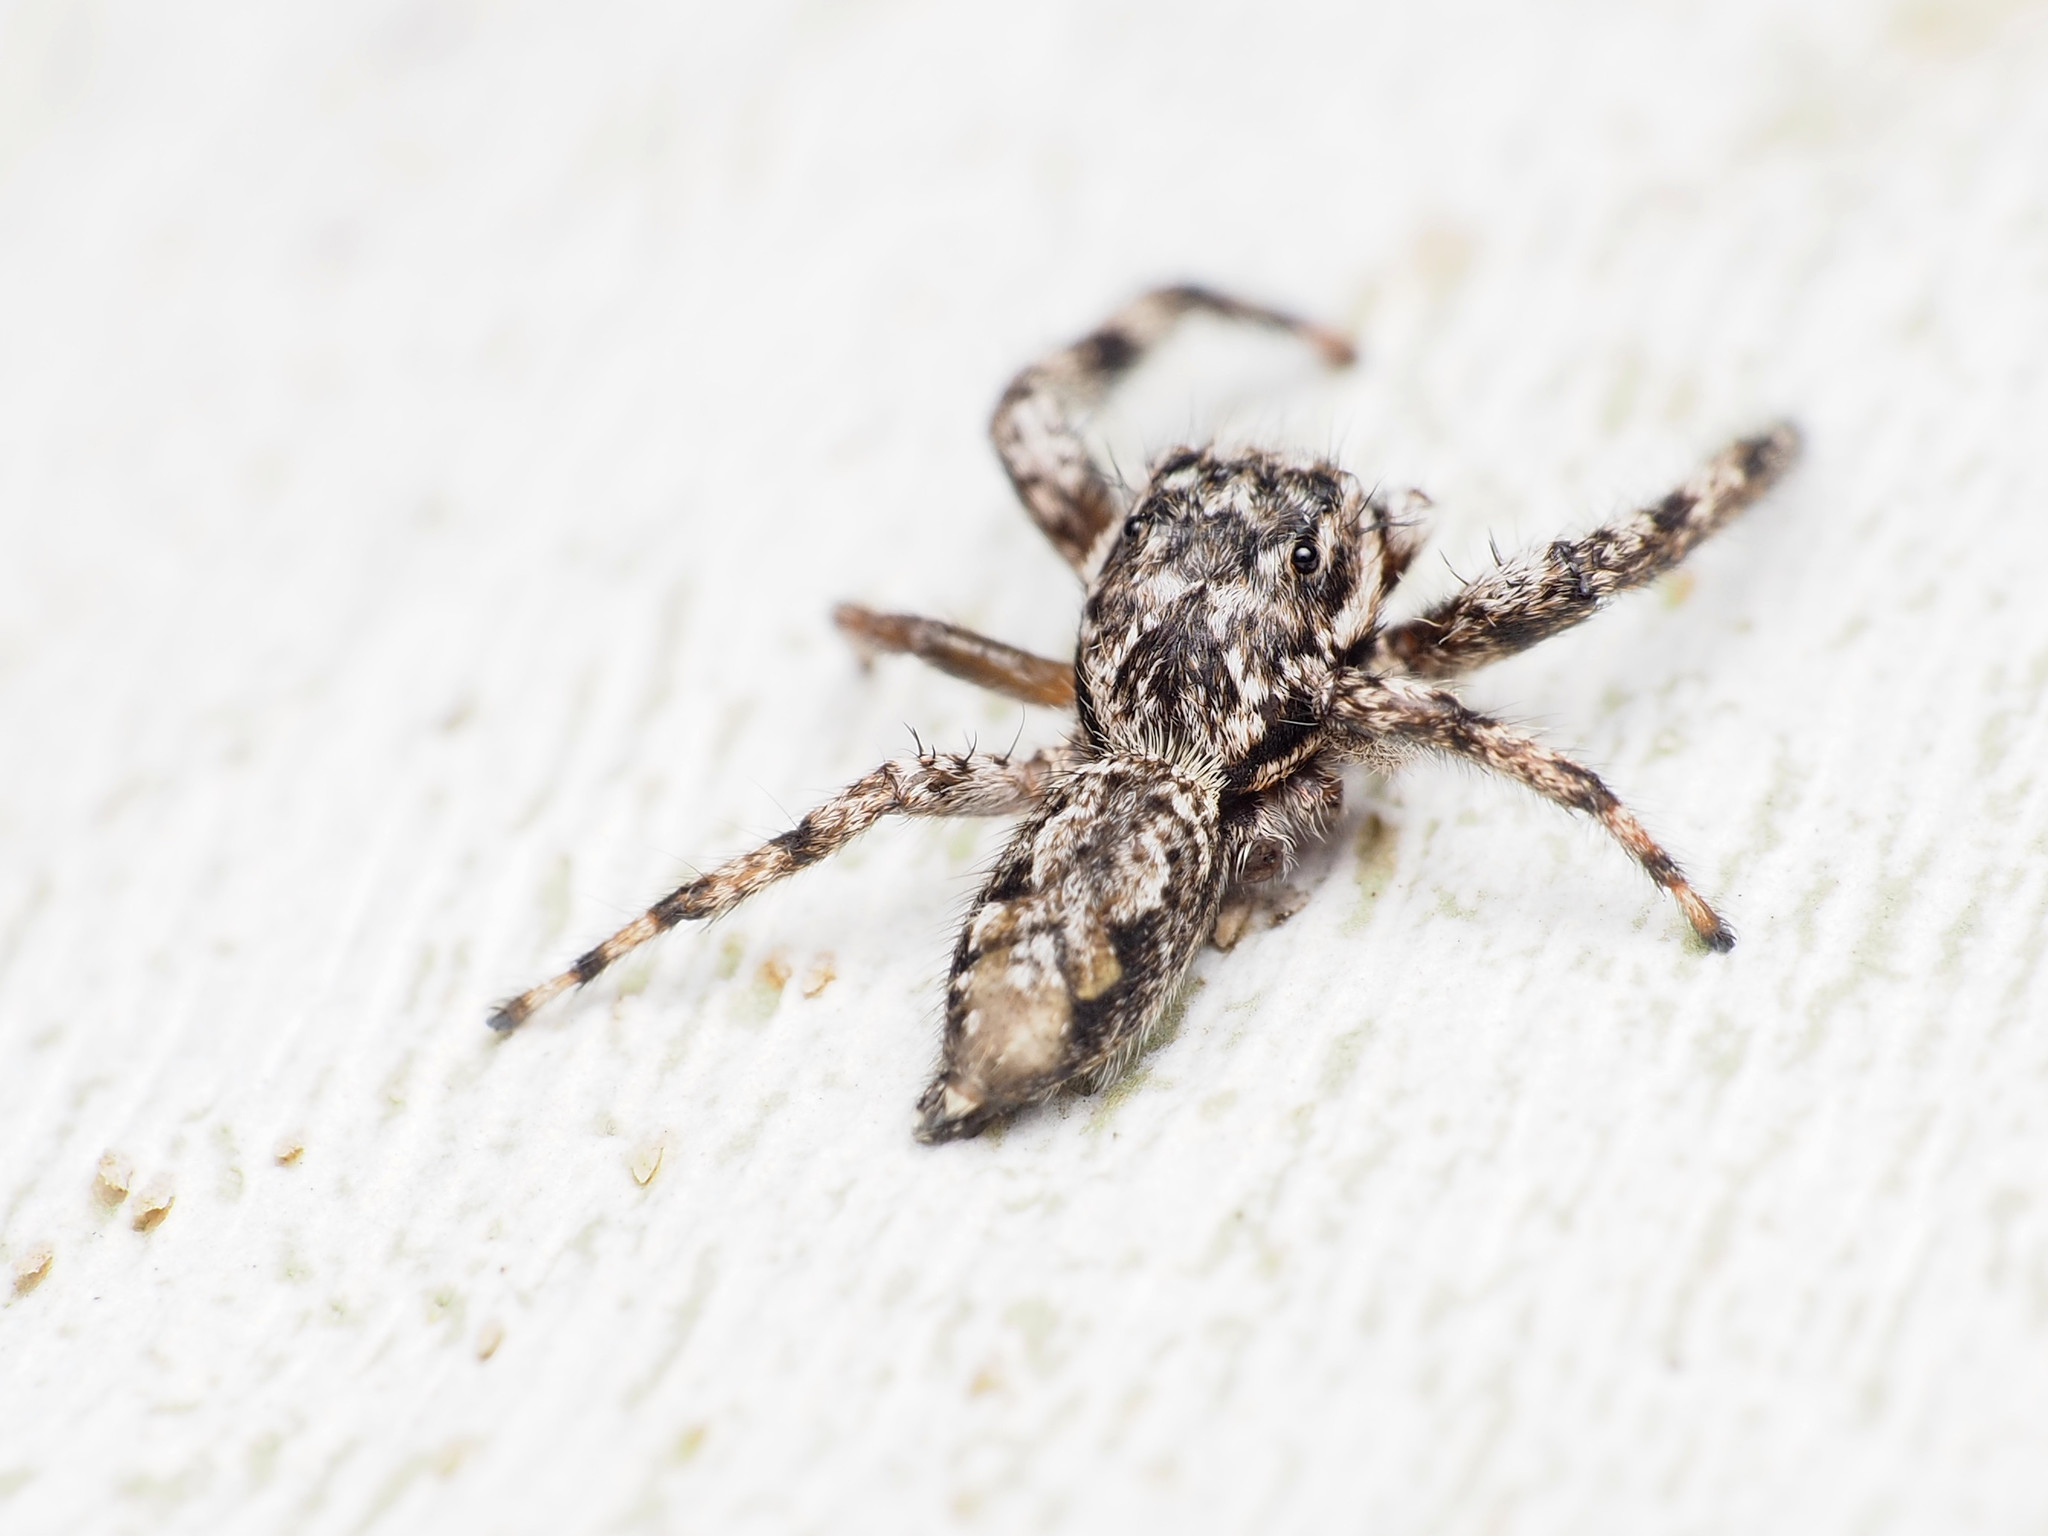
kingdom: Animalia
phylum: Arthropoda
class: Arachnida
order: Araneae
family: Salticidae
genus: Platycryptus
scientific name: Platycryptus undatus
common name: Tan jumping spider
